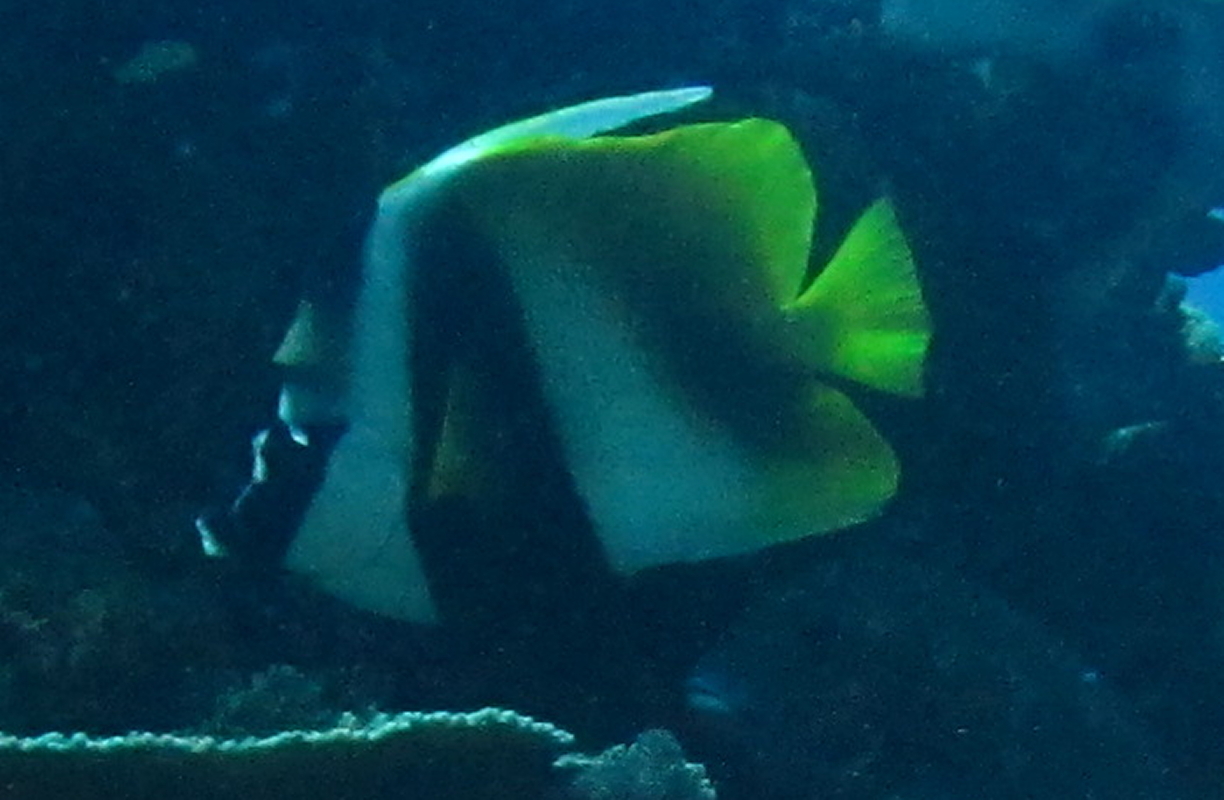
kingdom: Animalia
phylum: Chordata
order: Perciformes
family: Chaetodontidae
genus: Heniochus
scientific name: Heniochus monoceros
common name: Masked bannerfish
